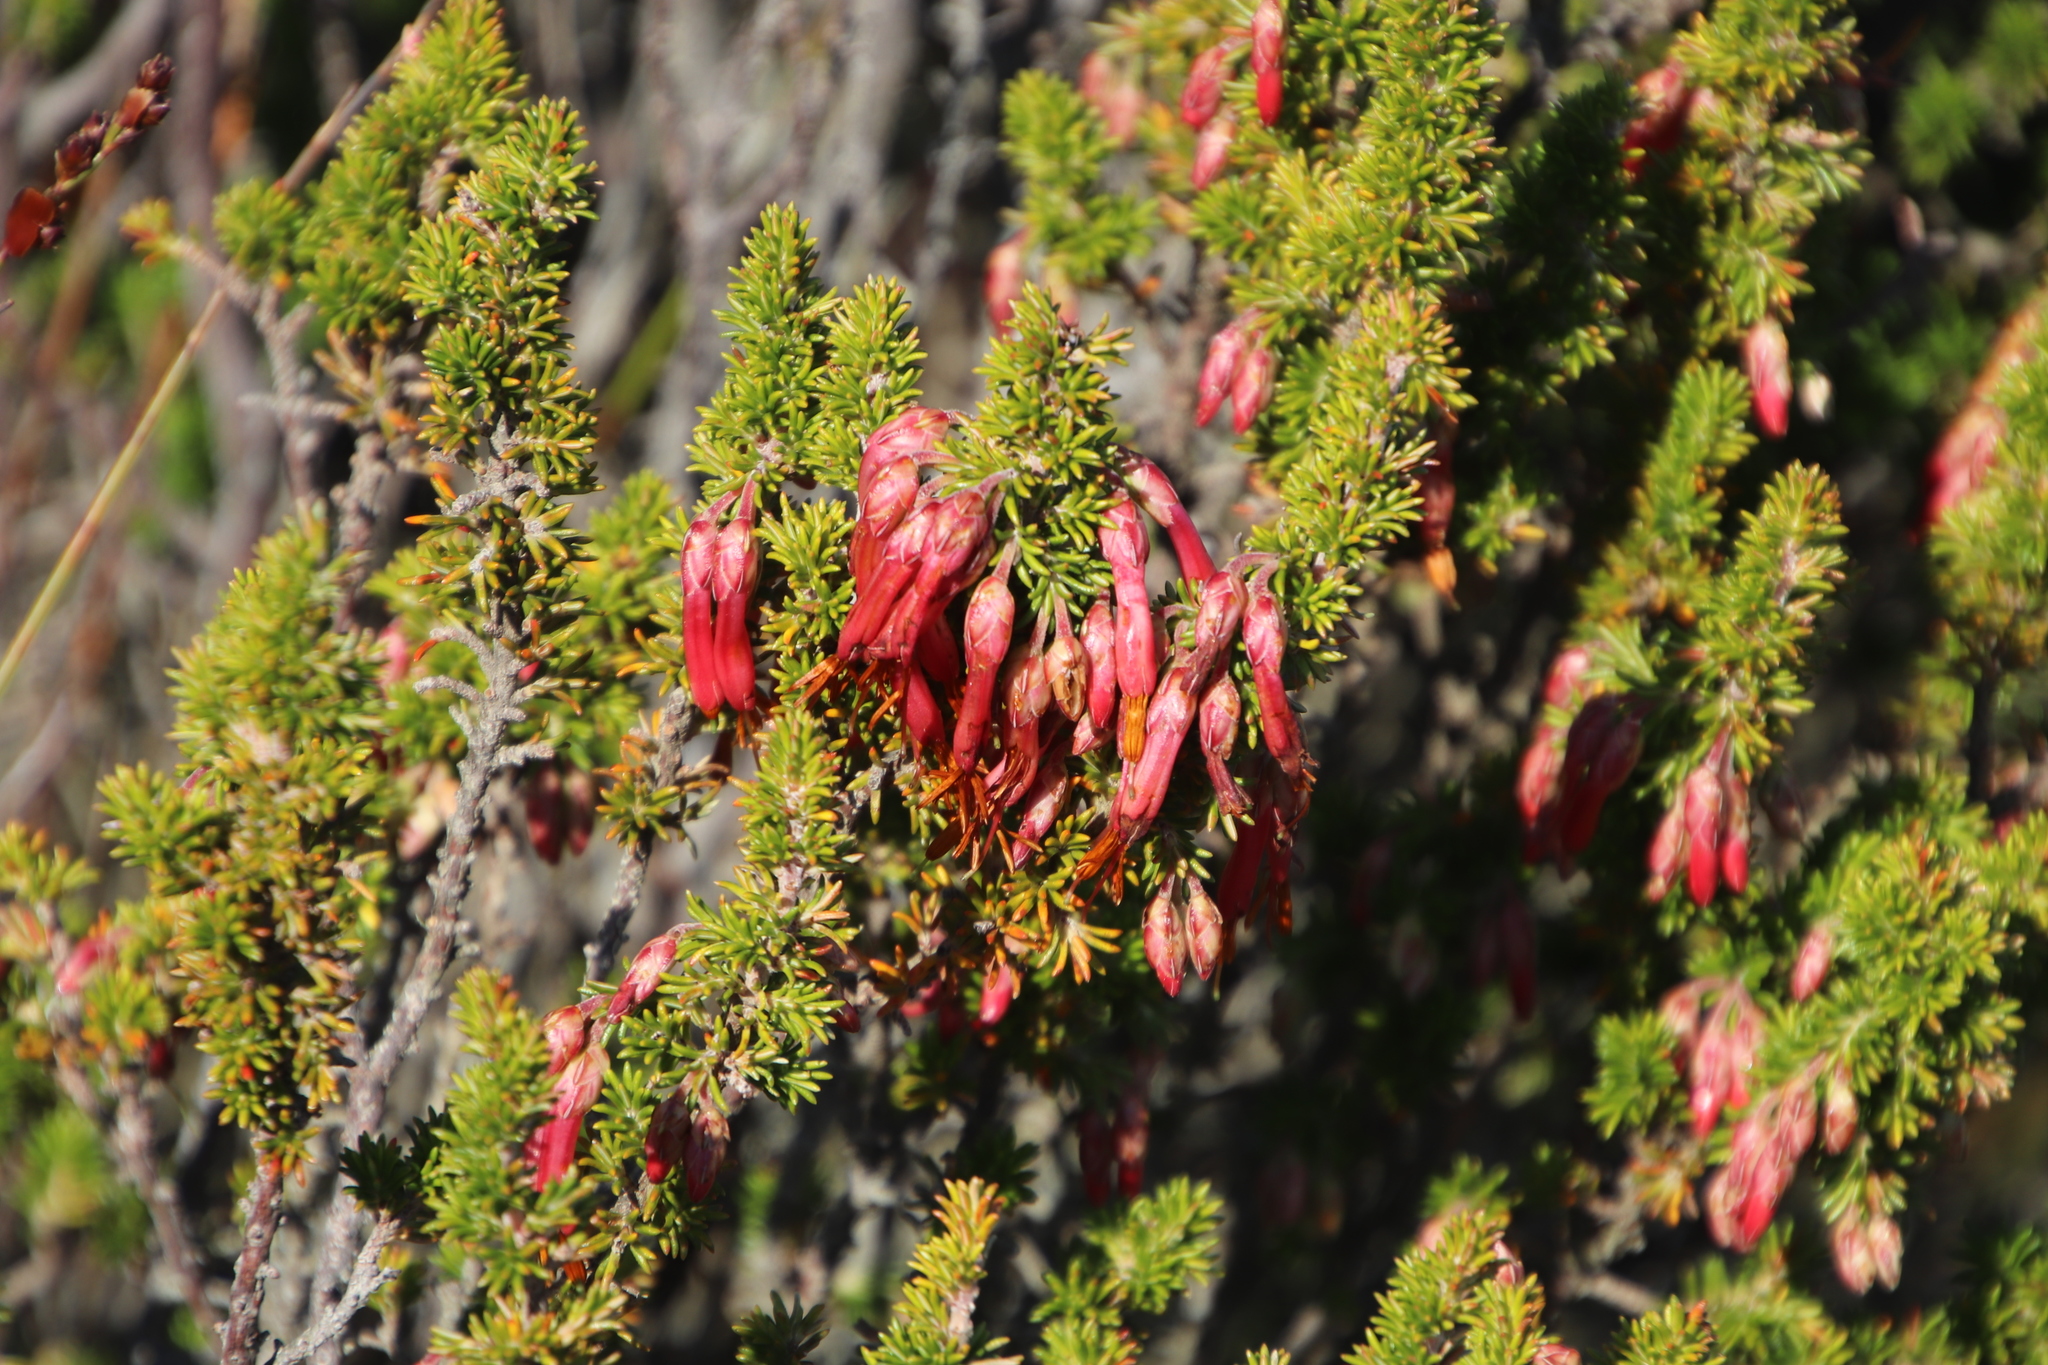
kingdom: Plantae
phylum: Tracheophyta
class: Magnoliopsida
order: Ericales
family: Ericaceae
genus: Erica
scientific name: Erica coccinea
